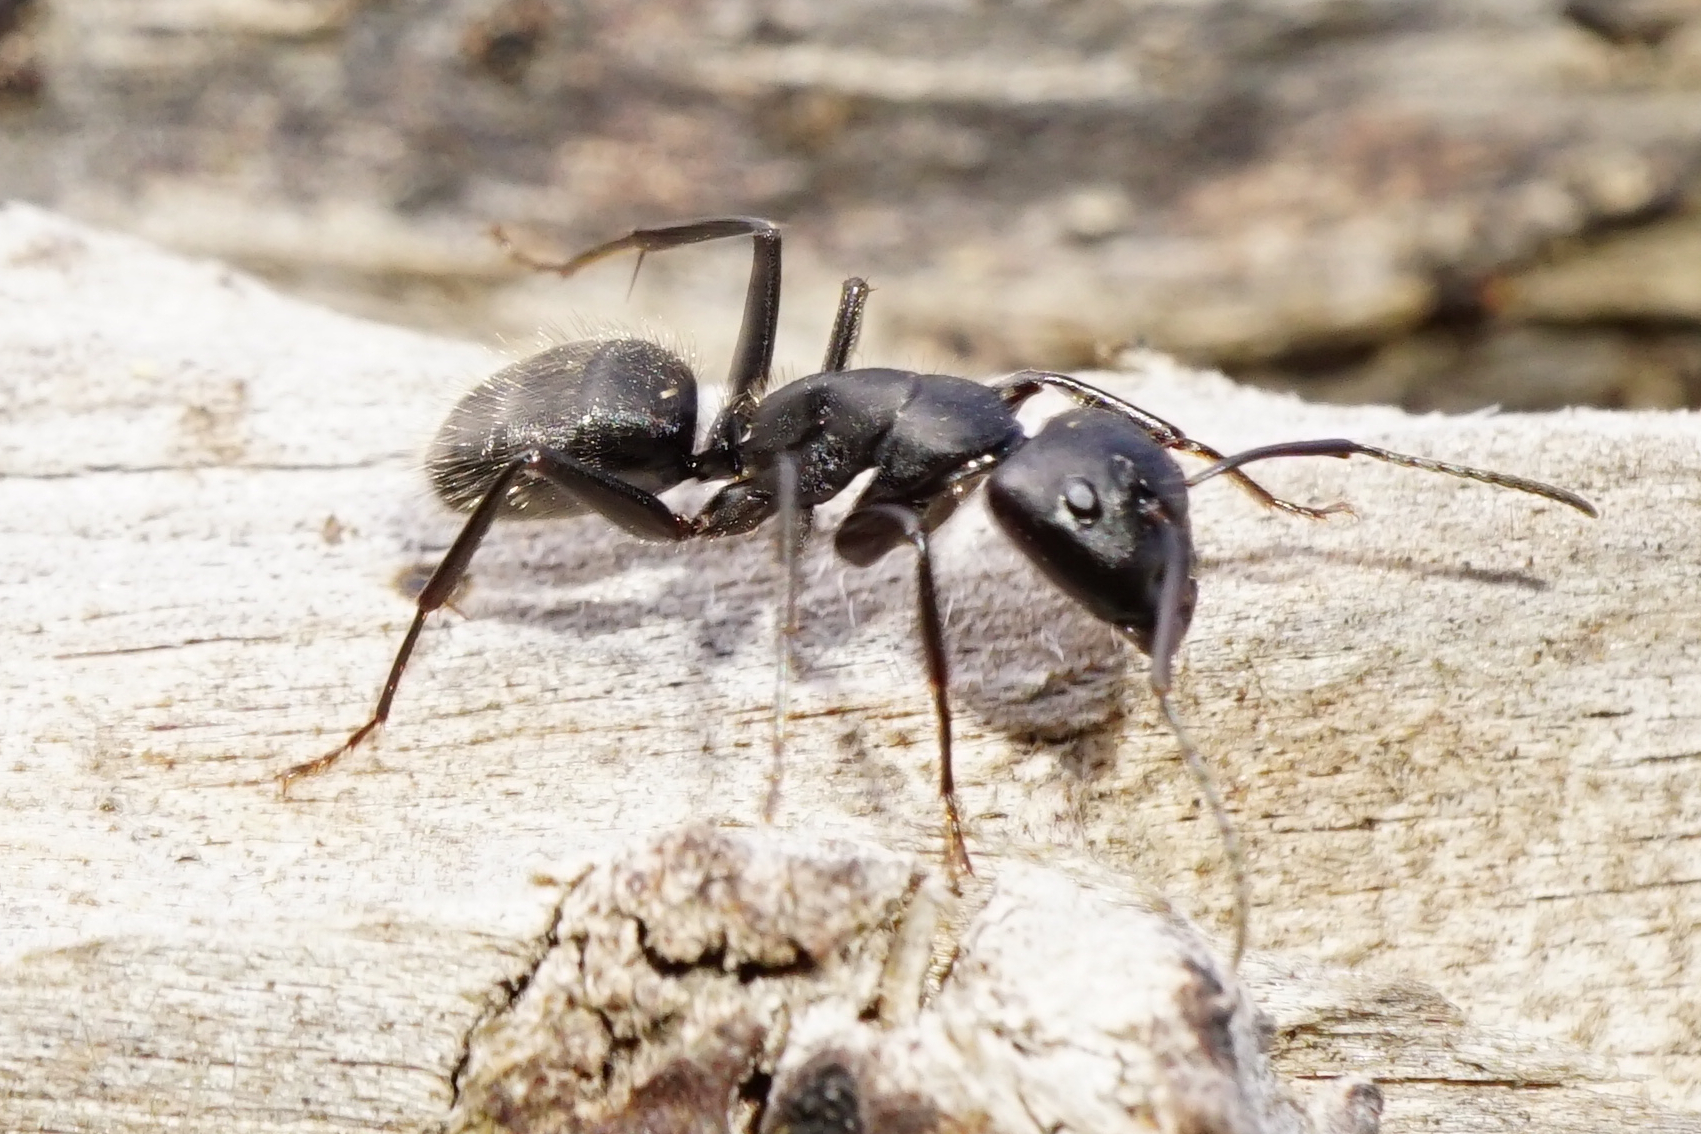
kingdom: Animalia
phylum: Arthropoda
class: Insecta
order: Hymenoptera
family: Formicidae
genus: Camponotus
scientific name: Camponotus vagus
